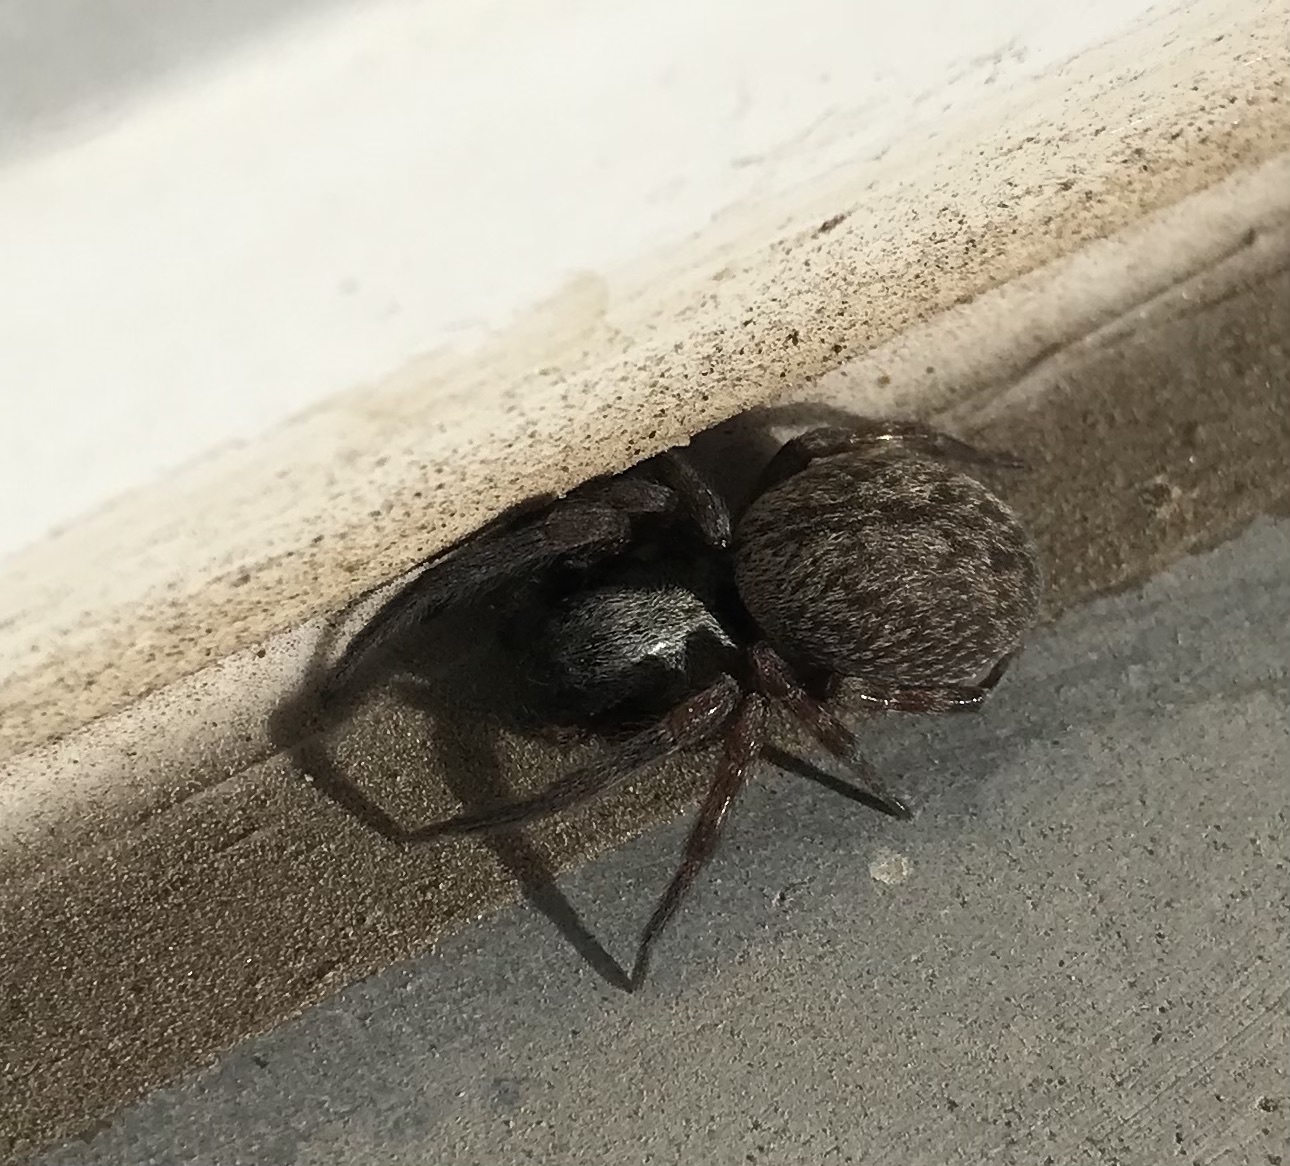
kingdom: Animalia
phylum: Arthropoda
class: Arachnida
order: Araneae
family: Desidae
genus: Badumna
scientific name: Badumna longinqua
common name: Gray house spider
